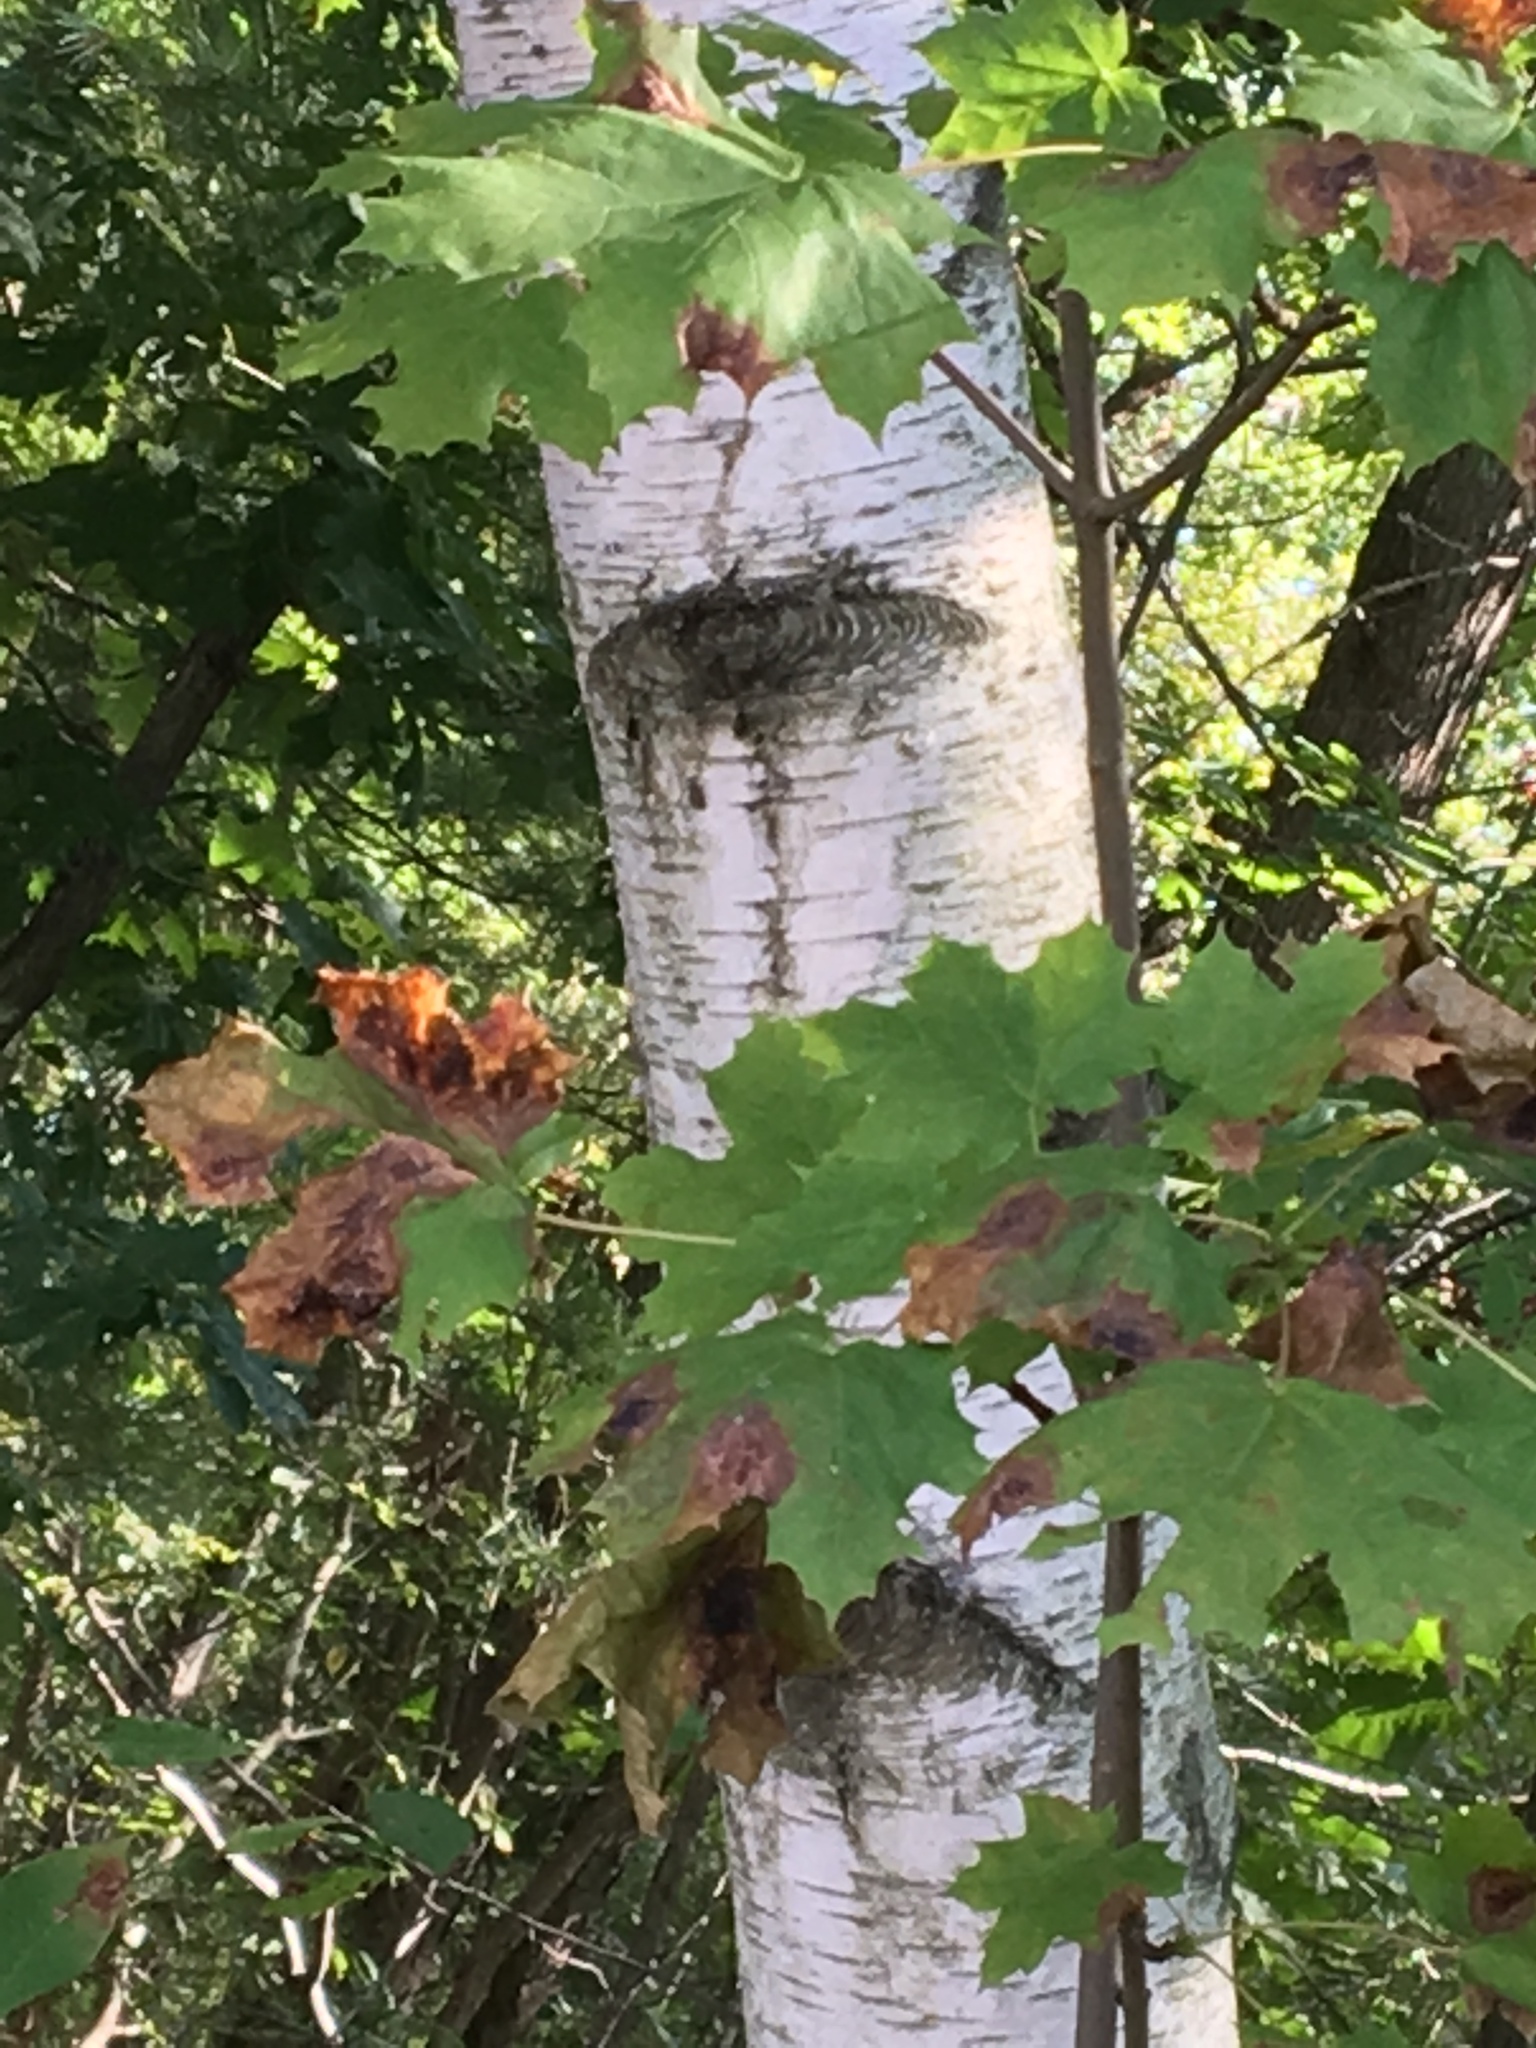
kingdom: Plantae
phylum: Tracheophyta
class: Magnoliopsida
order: Fagales
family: Betulaceae
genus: Betula
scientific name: Betula populifolia
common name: Fire birch
